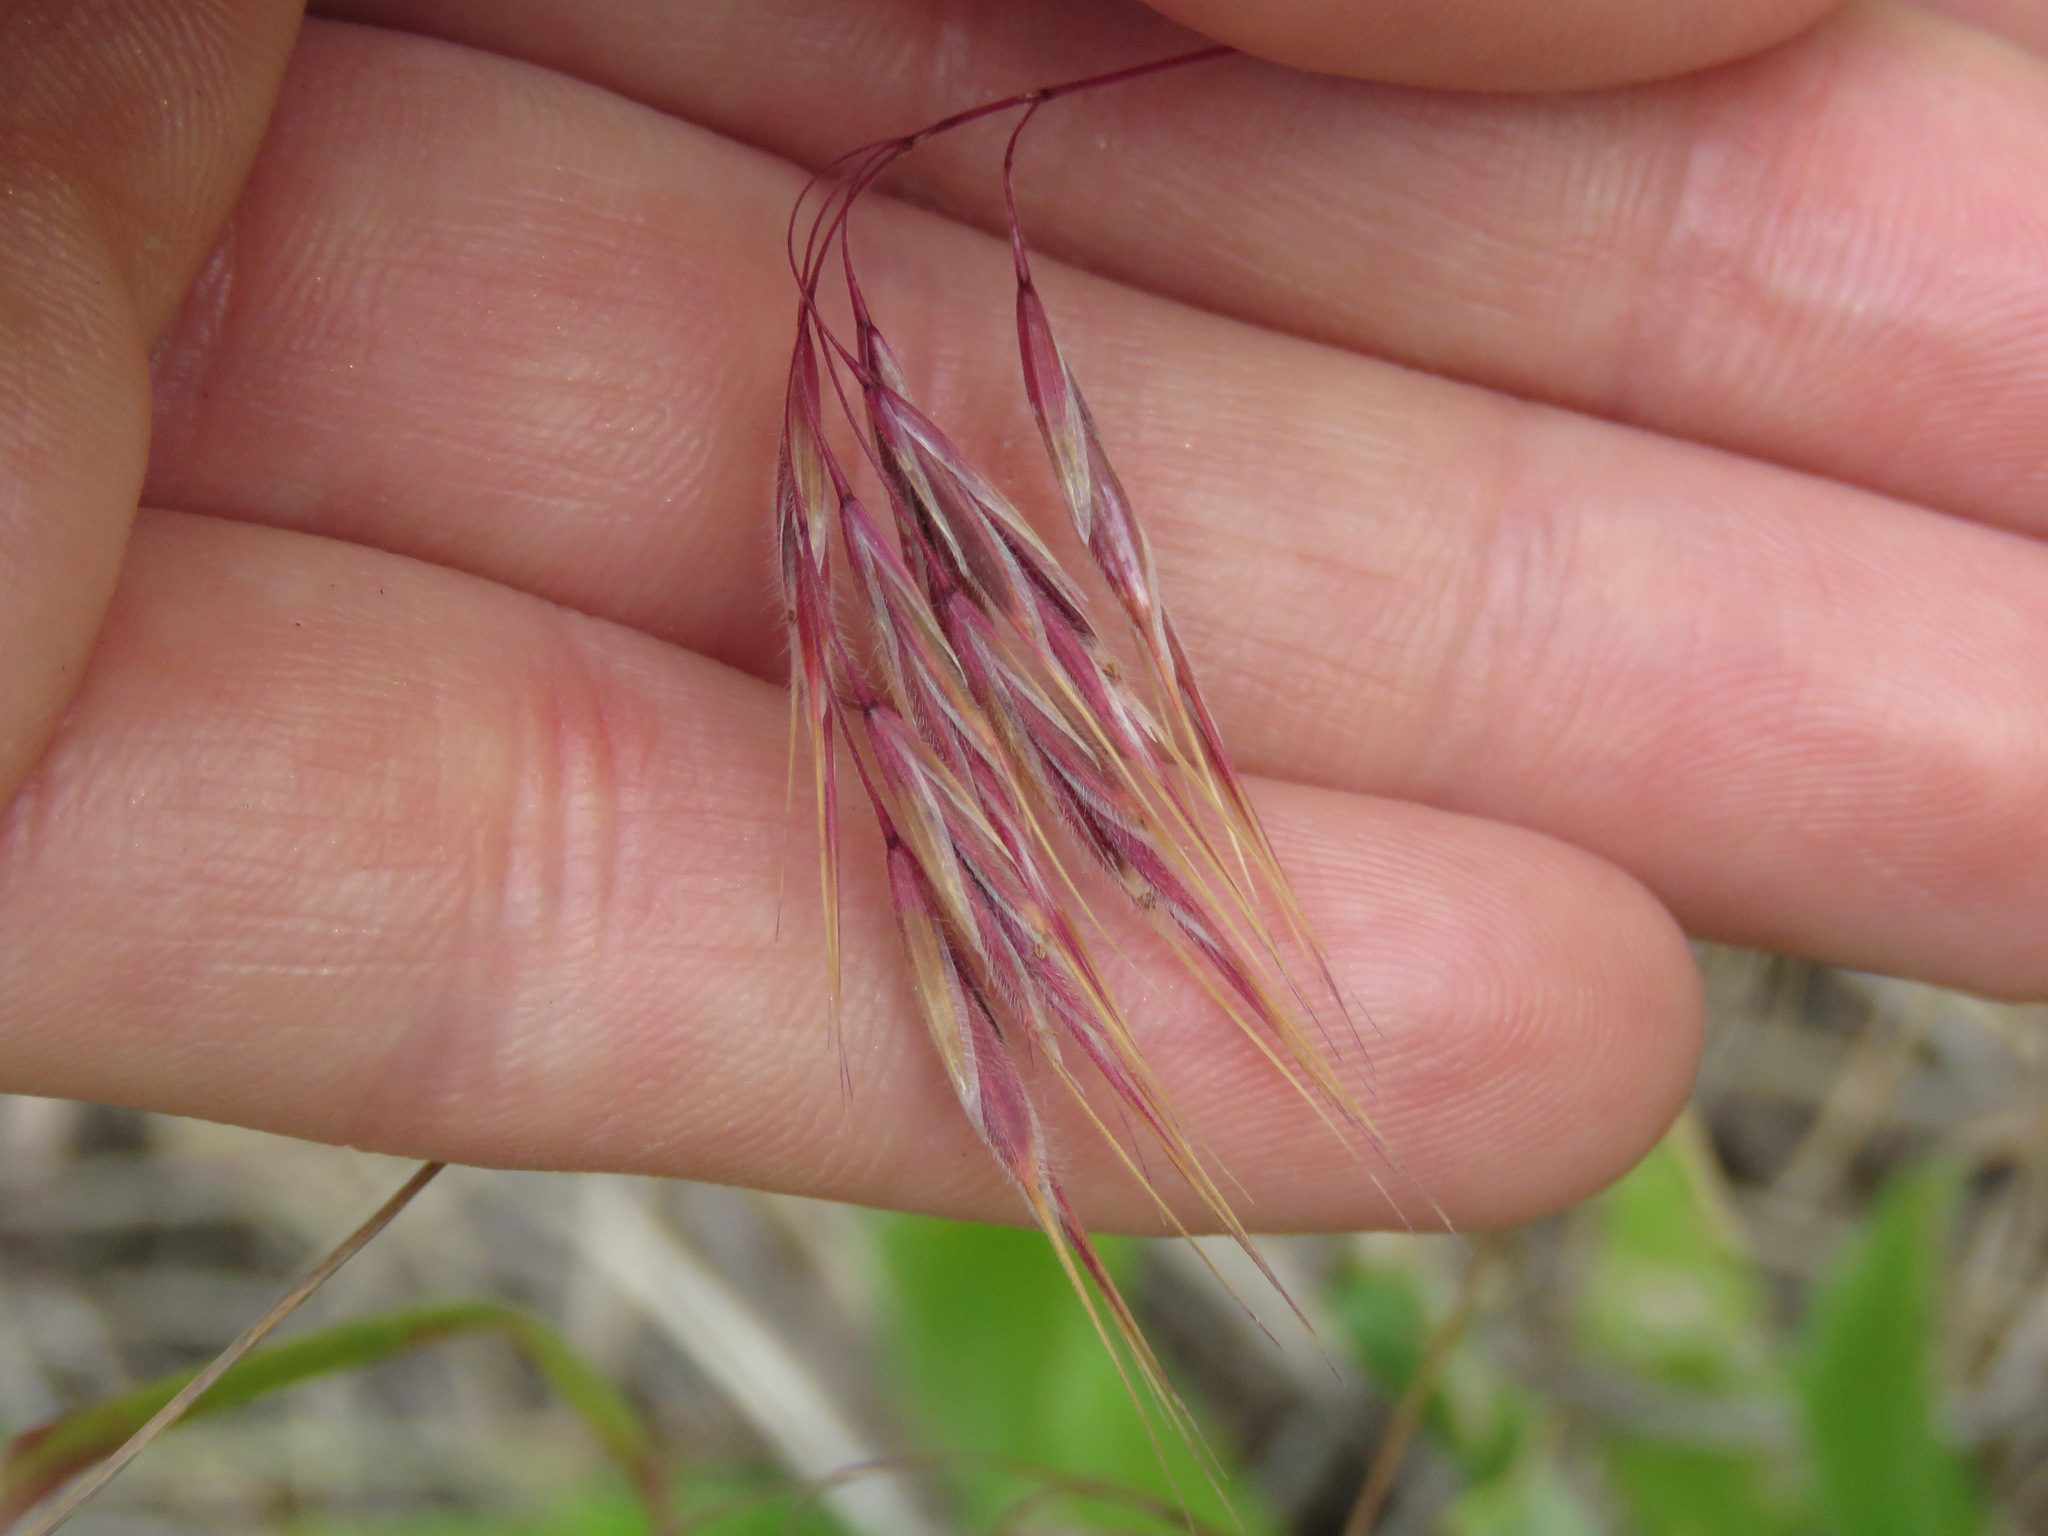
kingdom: Plantae
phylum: Tracheophyta
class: Liliopsida
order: Poales
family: Poaceae
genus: Bromus
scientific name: Bromus tectorum
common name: Cheatgrass
